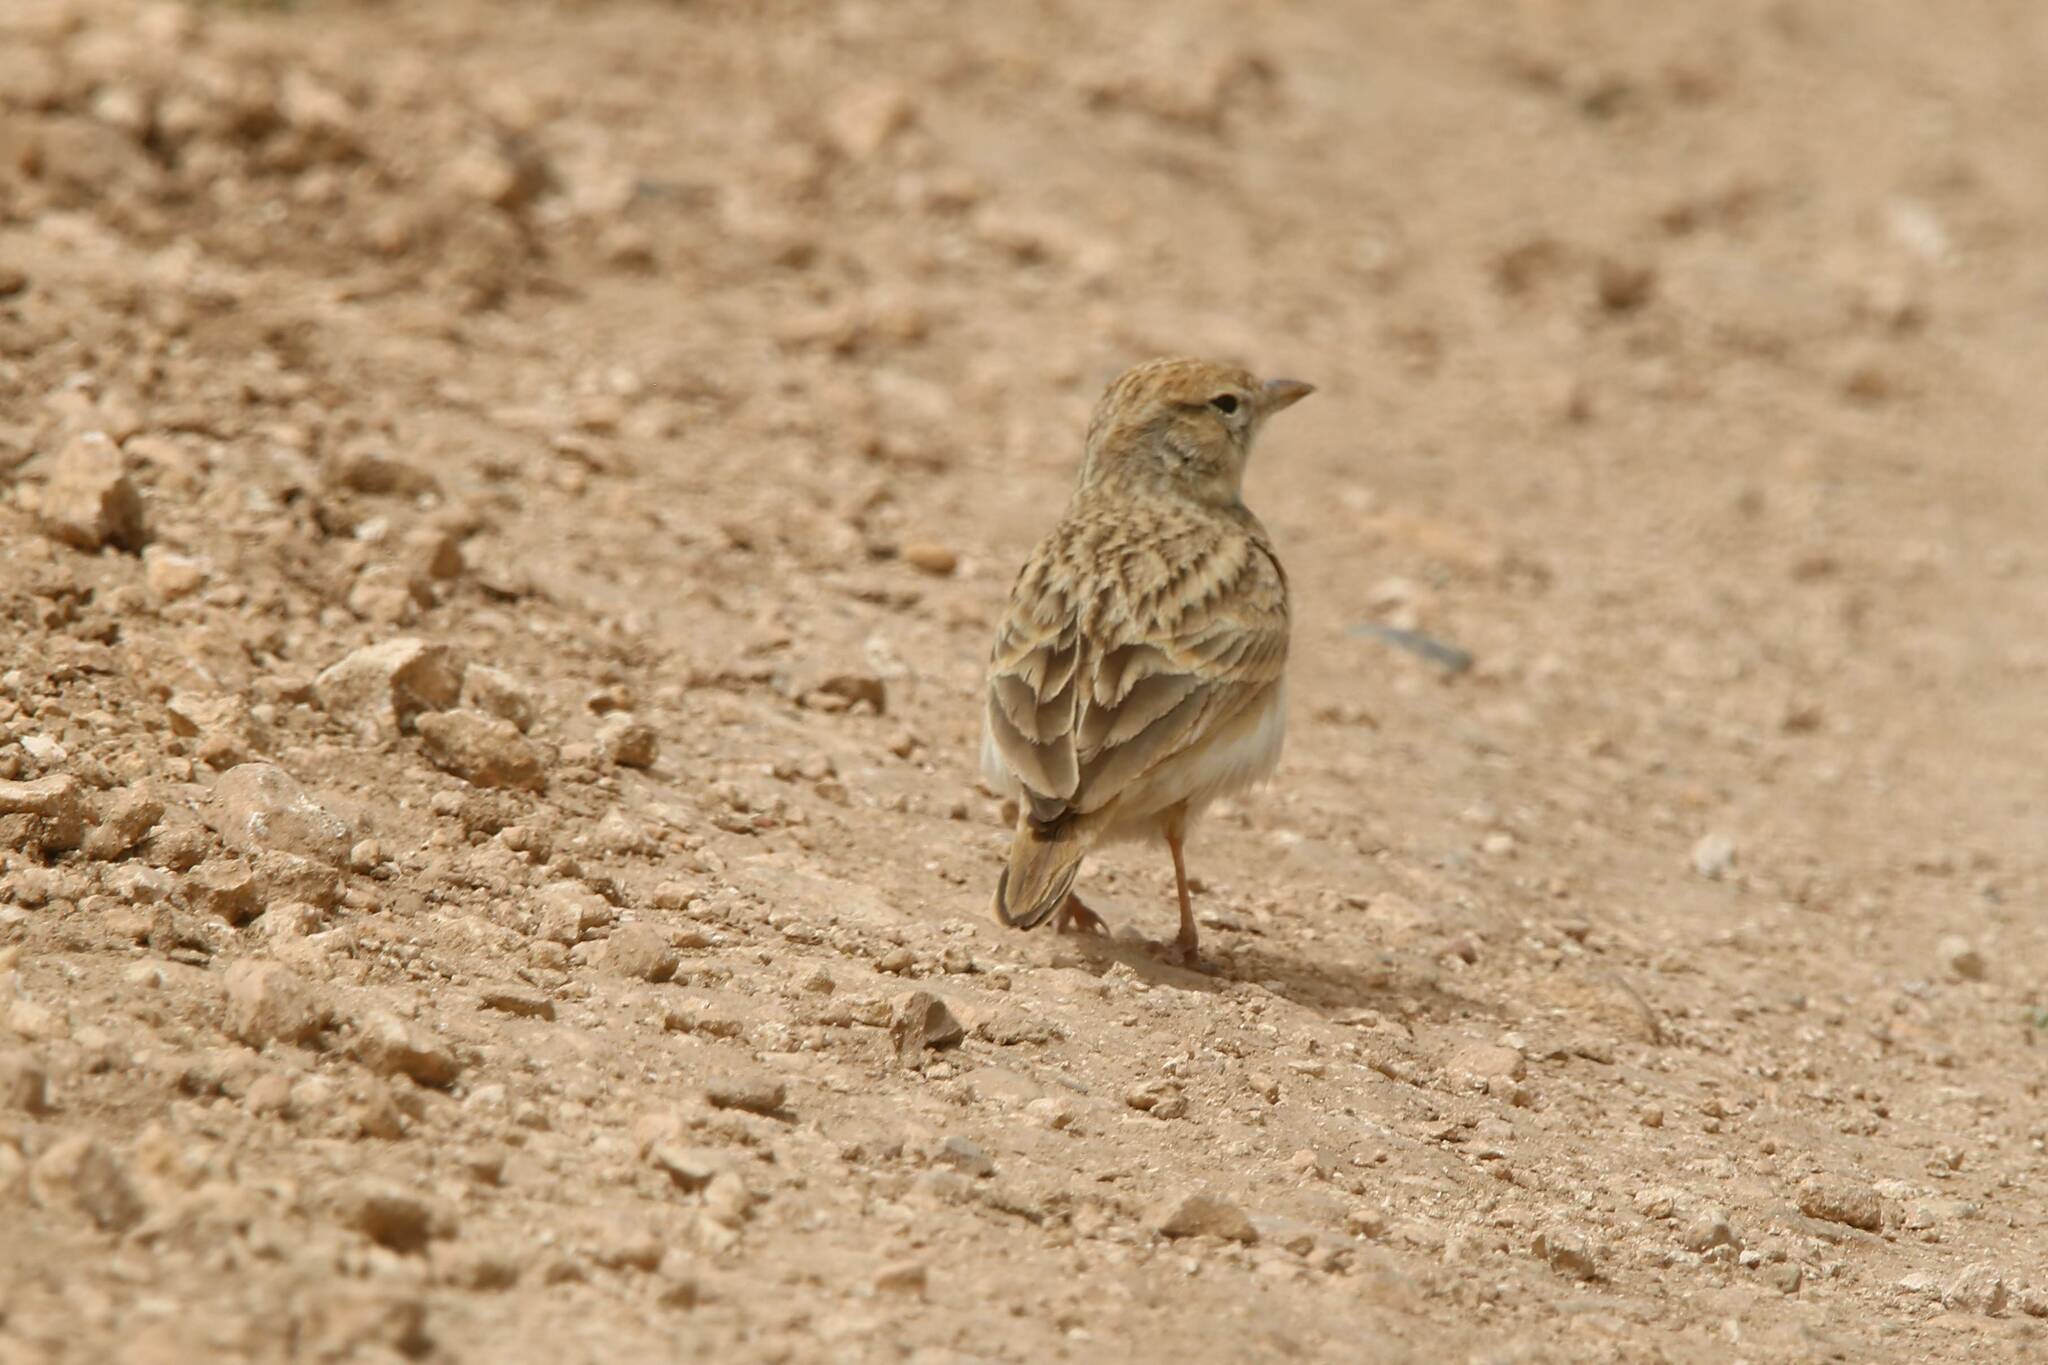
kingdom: Animalia
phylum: Chordata
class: Aves
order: Passeriformes
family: Alaudidae
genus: Calandrella
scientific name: Calandrella brachydactyla
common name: Greater short-toed lark
